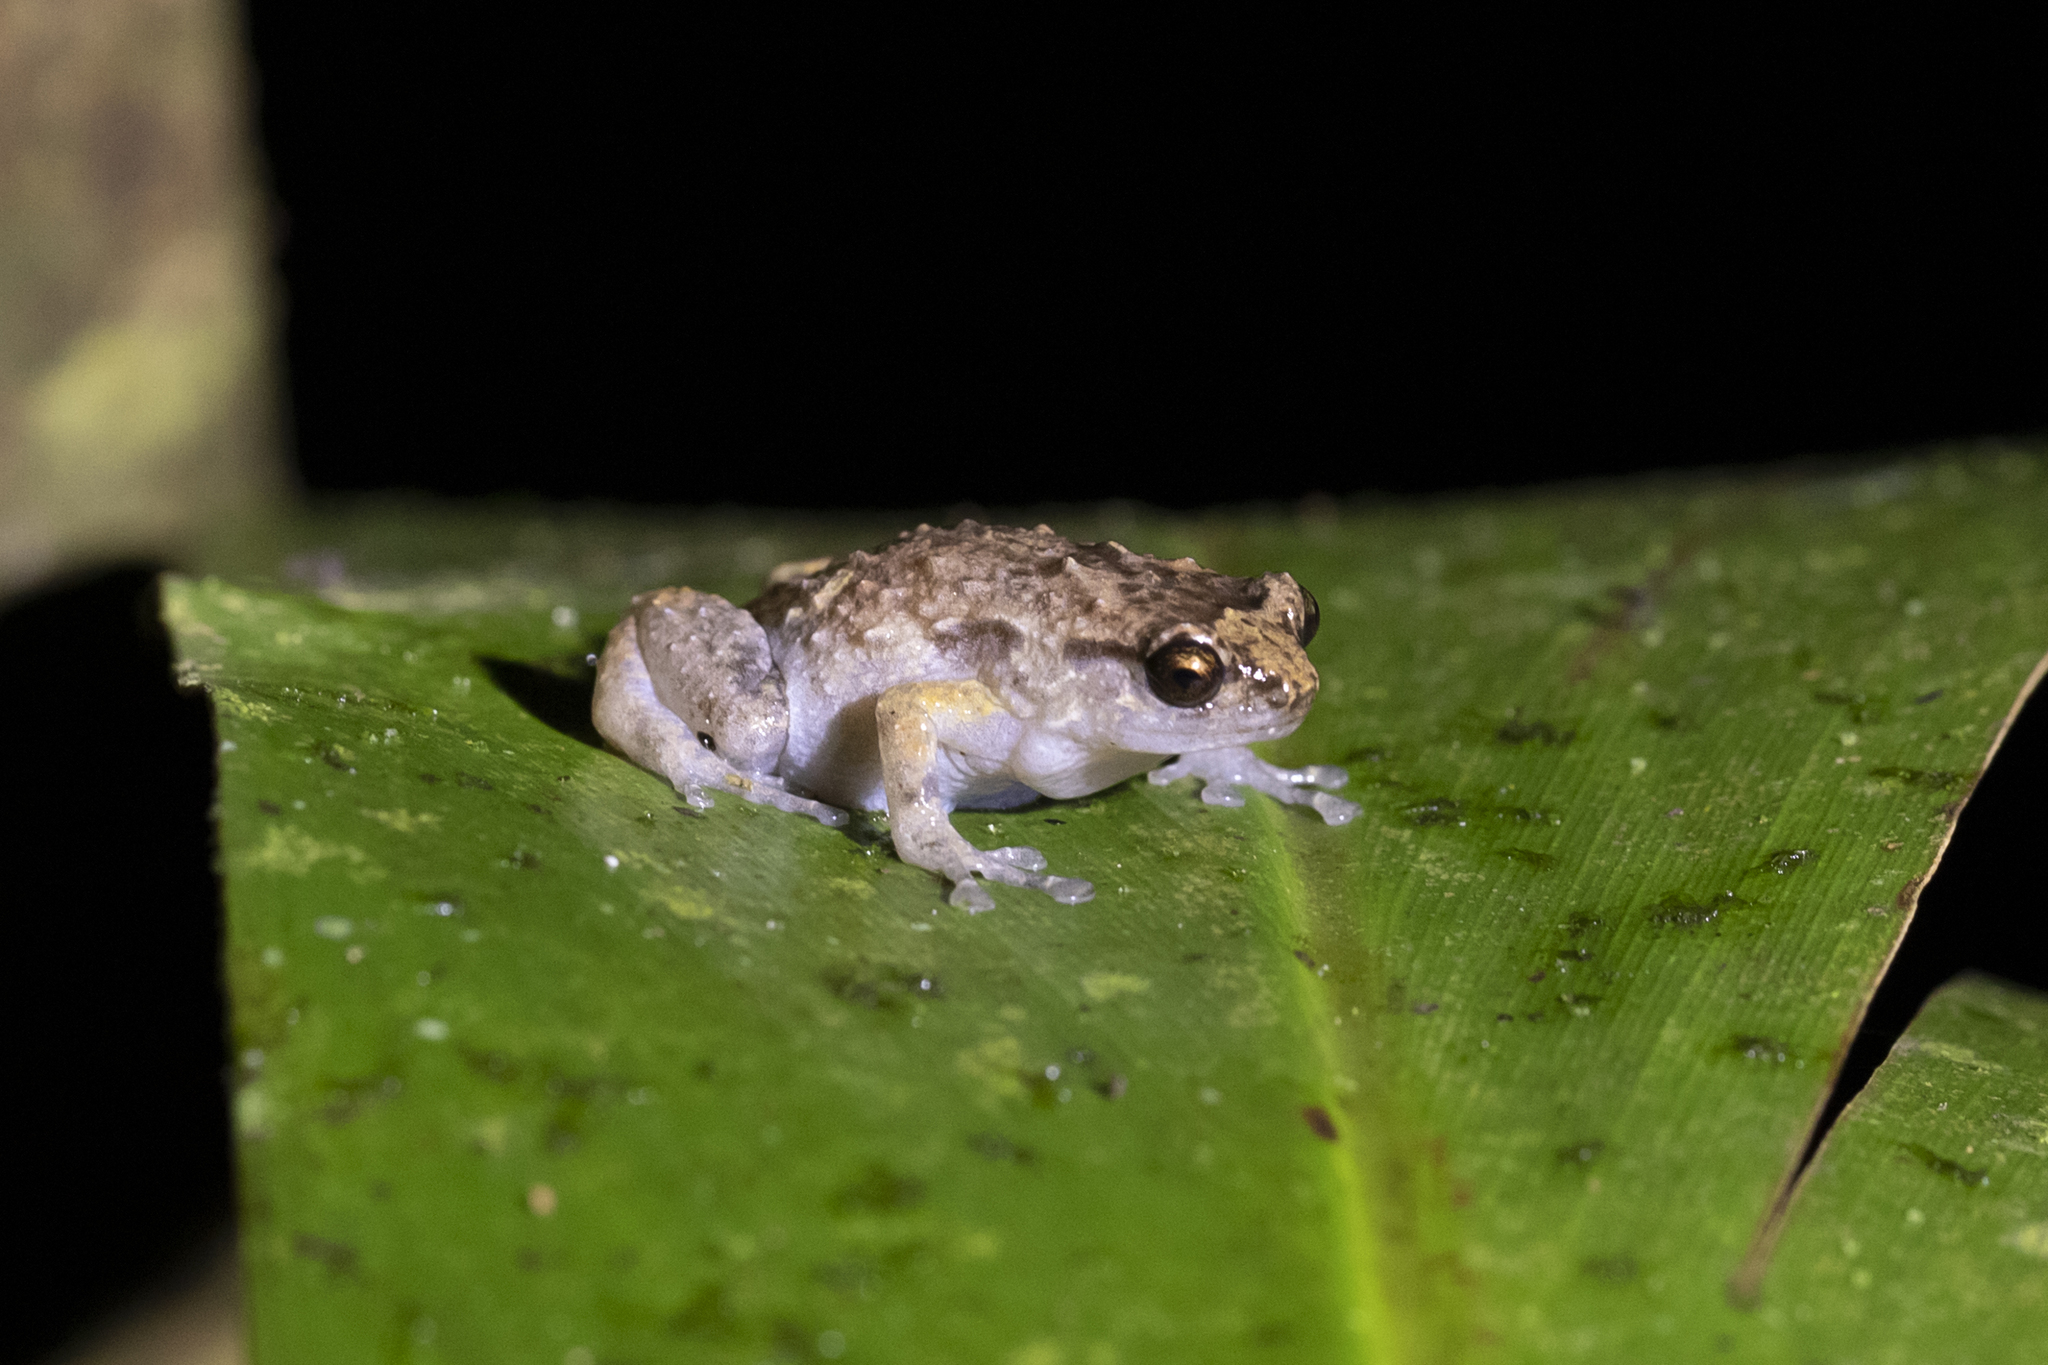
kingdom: Animalia
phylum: Chordata
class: Amphibia
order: Anura
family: Microhylidae
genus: Cophixalus
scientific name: Cophixalus ornatus
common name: Ornate frog
